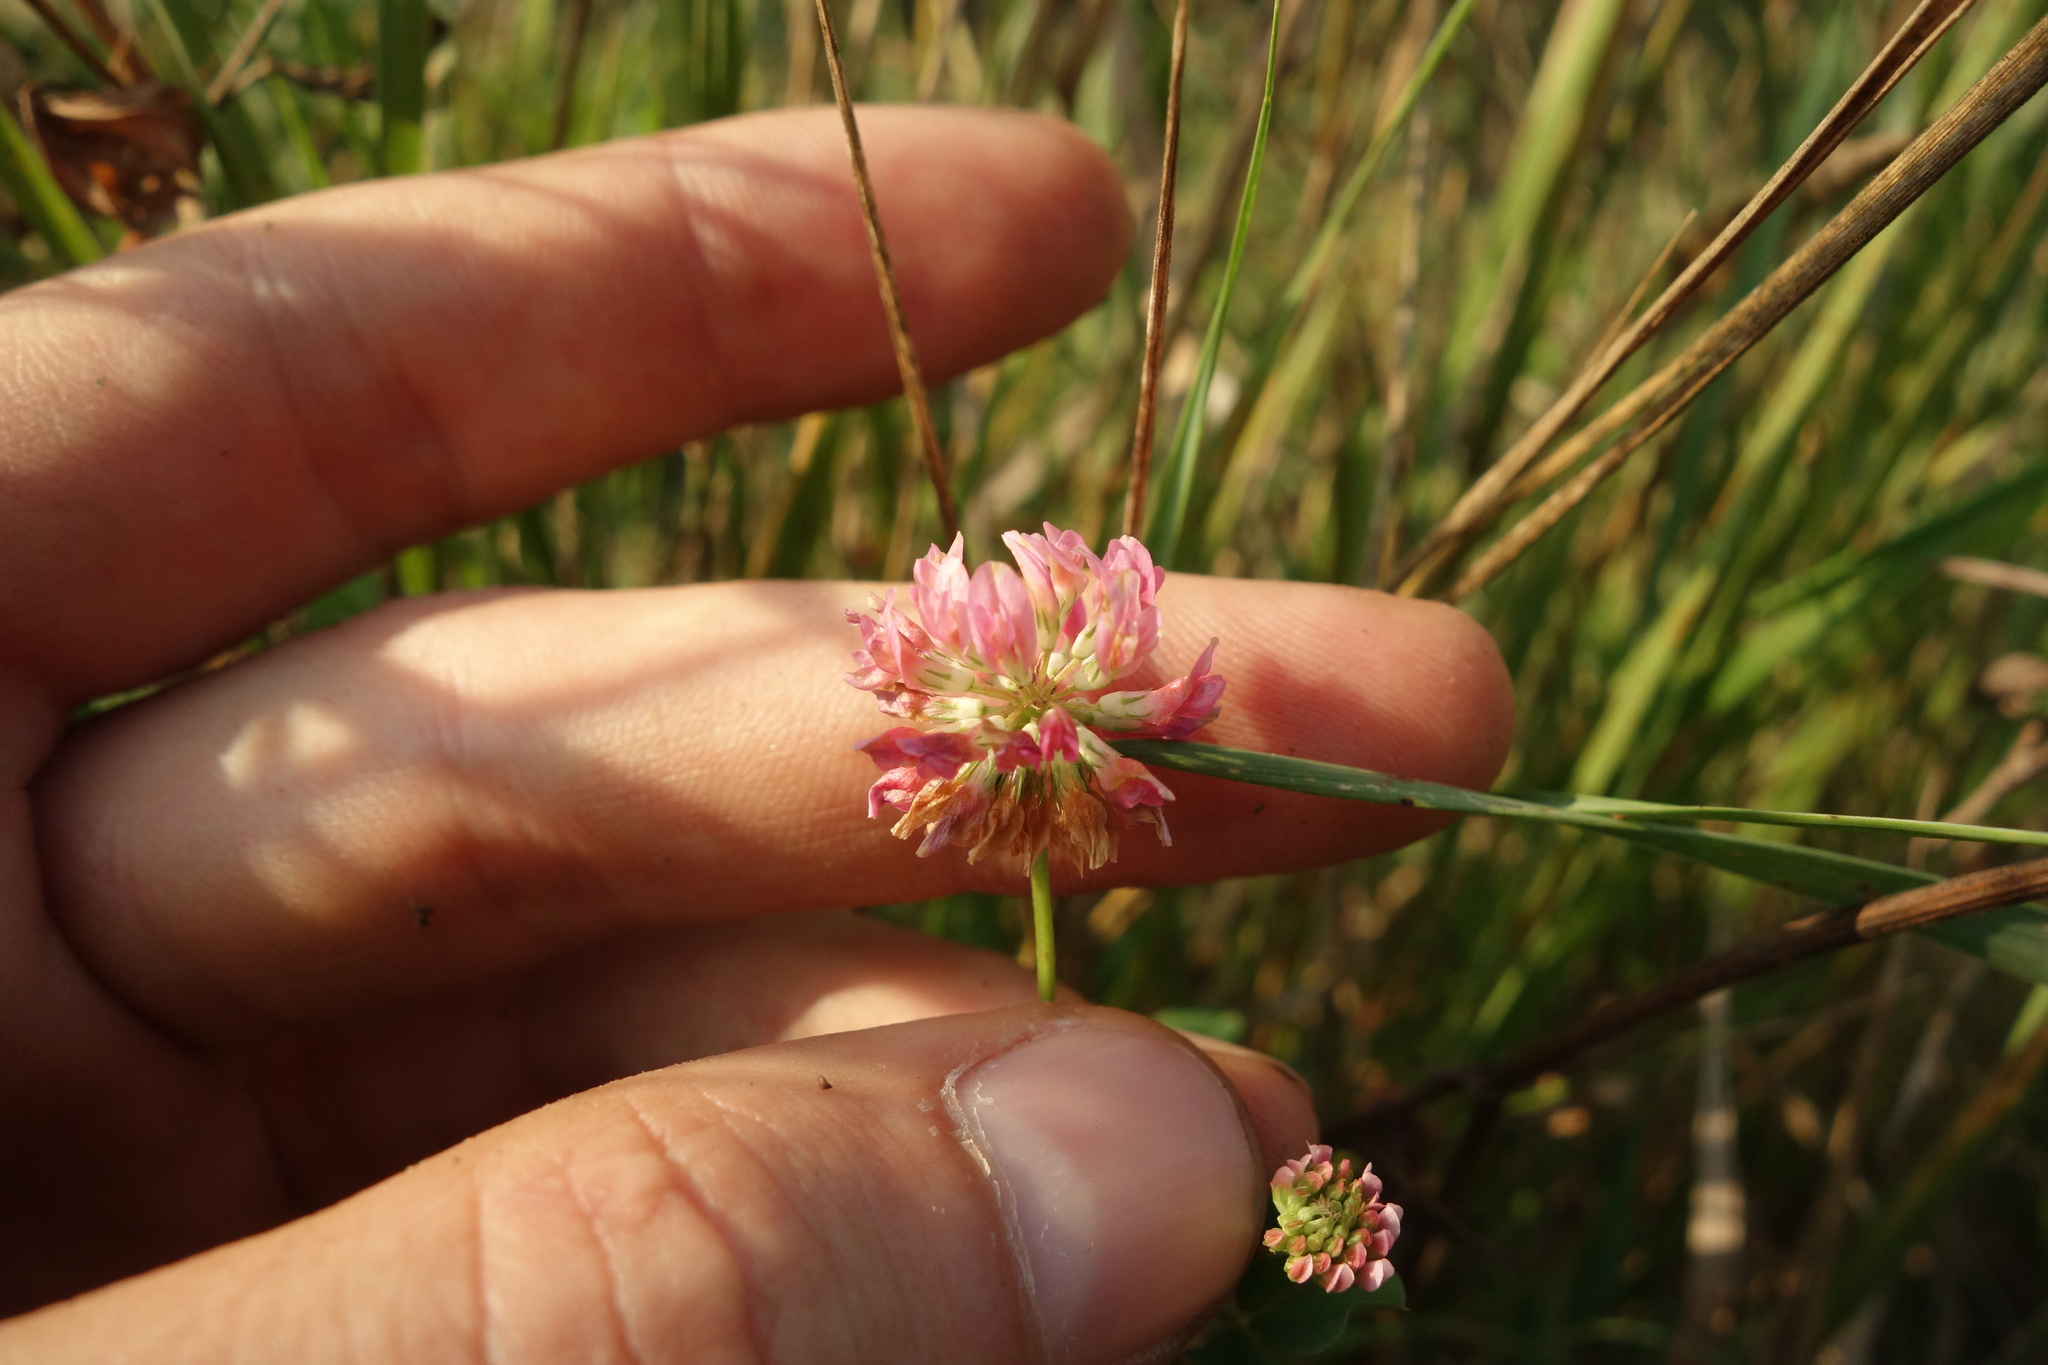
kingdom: Plantae
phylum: Tracheophyta
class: Magnoliopsida
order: Fabales
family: Fabaceae
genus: Trifolium
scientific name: Trifolium hybridum
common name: Alsike clover
